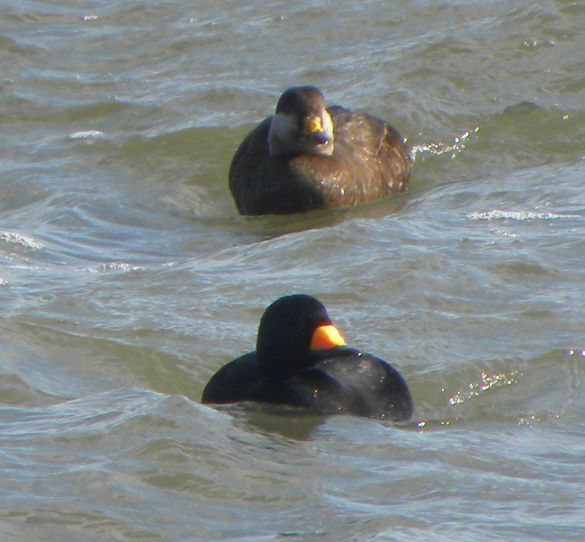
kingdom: Animalia
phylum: Chordata
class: Aves
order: Anseriformes
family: Anatidae
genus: Melanitta
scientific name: Melanitta americana
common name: Black scoter
